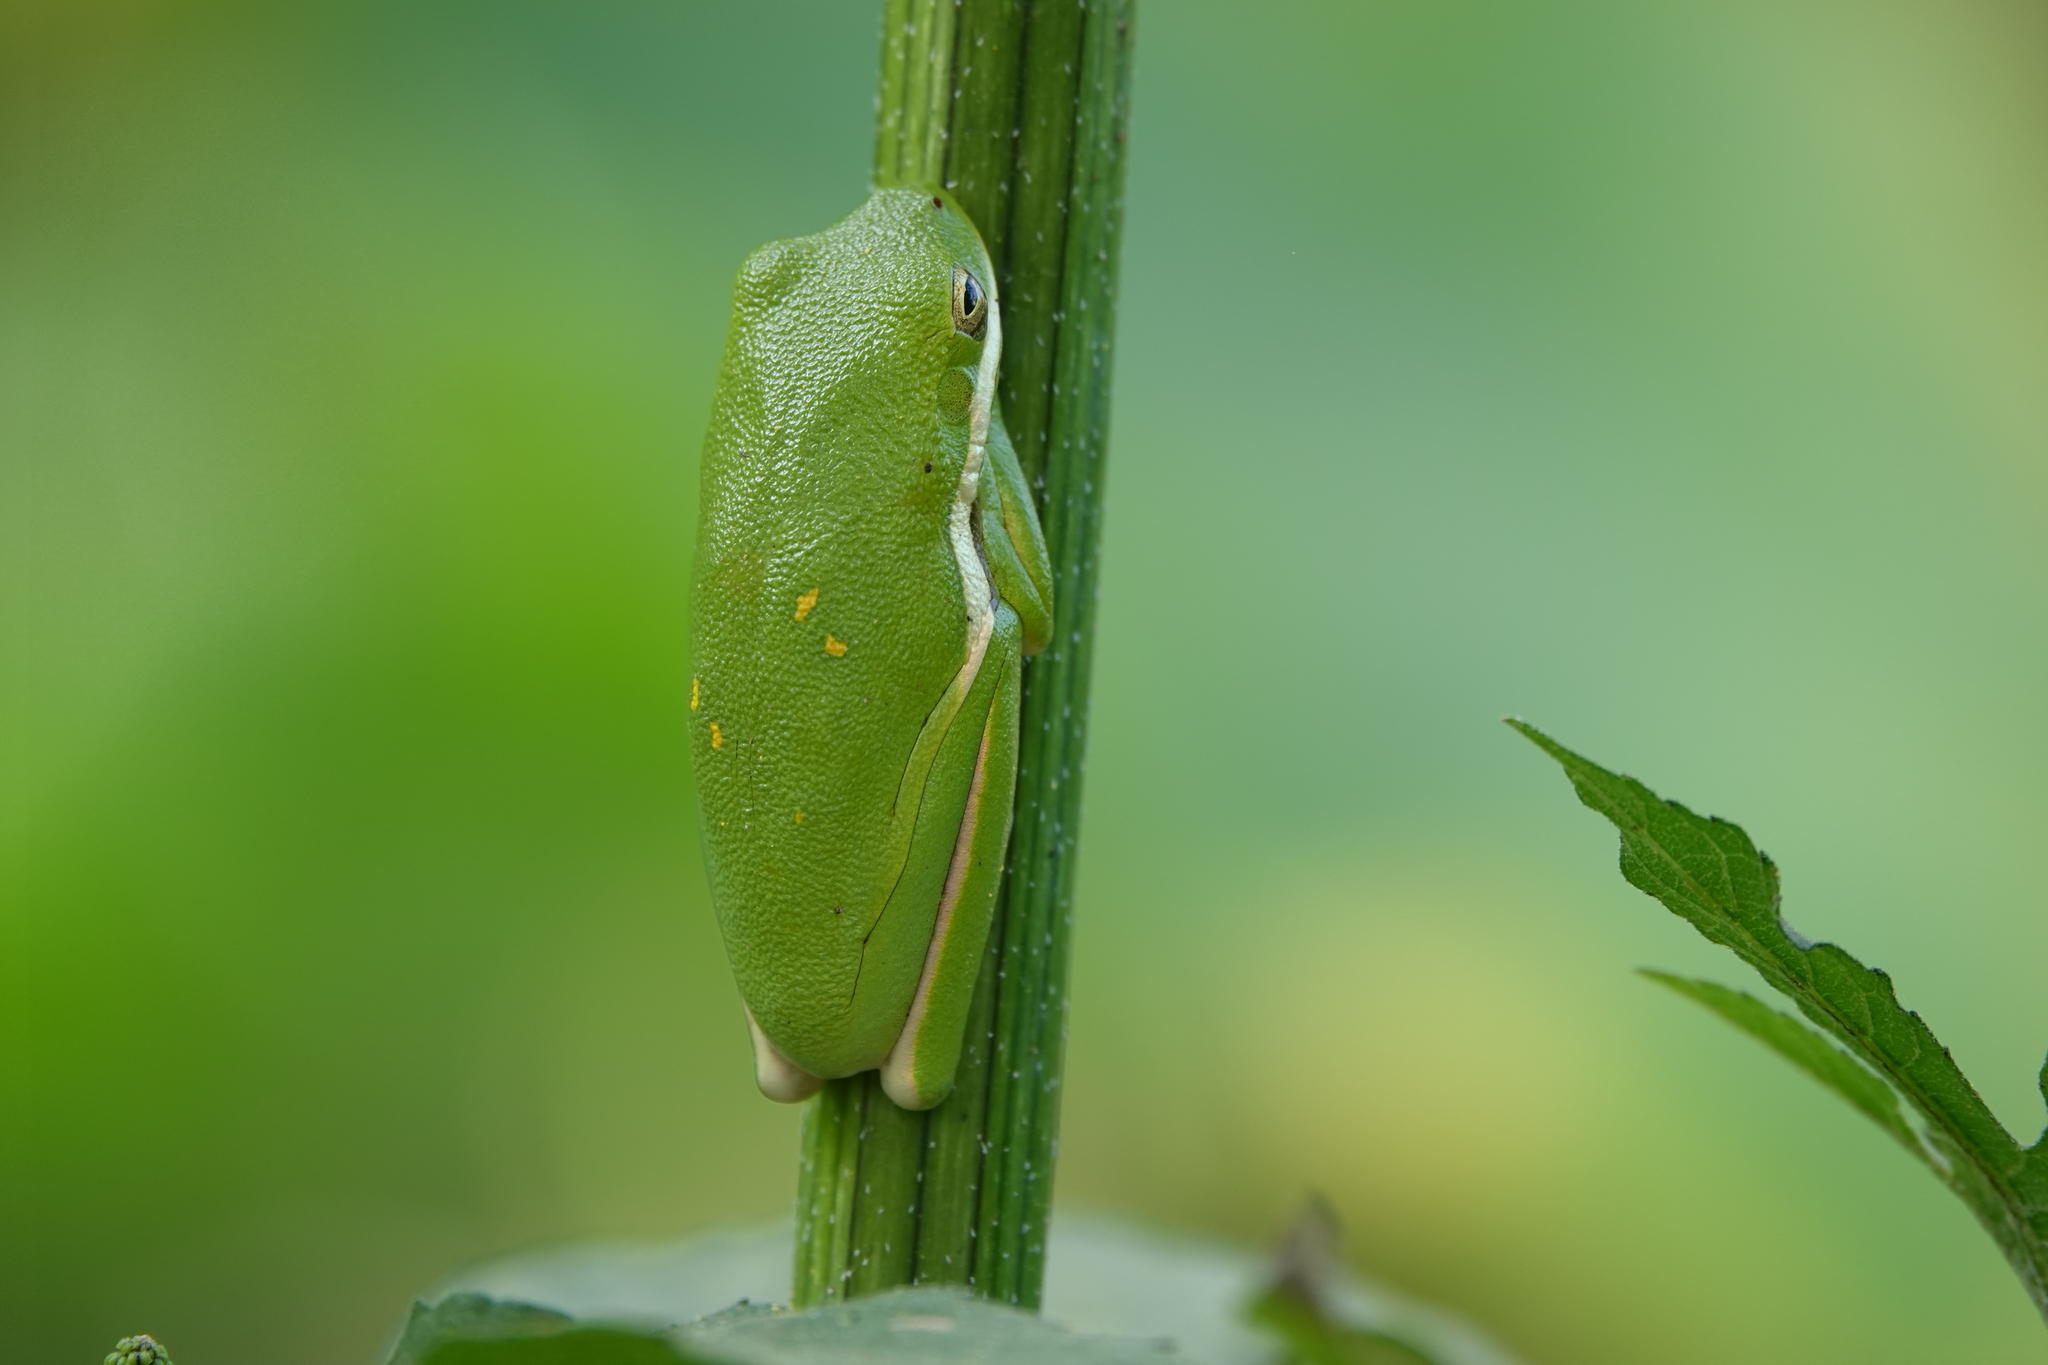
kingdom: Animalia
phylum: Chordata
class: Amphibia
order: Anura
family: Hylidae
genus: Dryophytes
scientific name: Dryophytes cinereus
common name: Green treefrog
